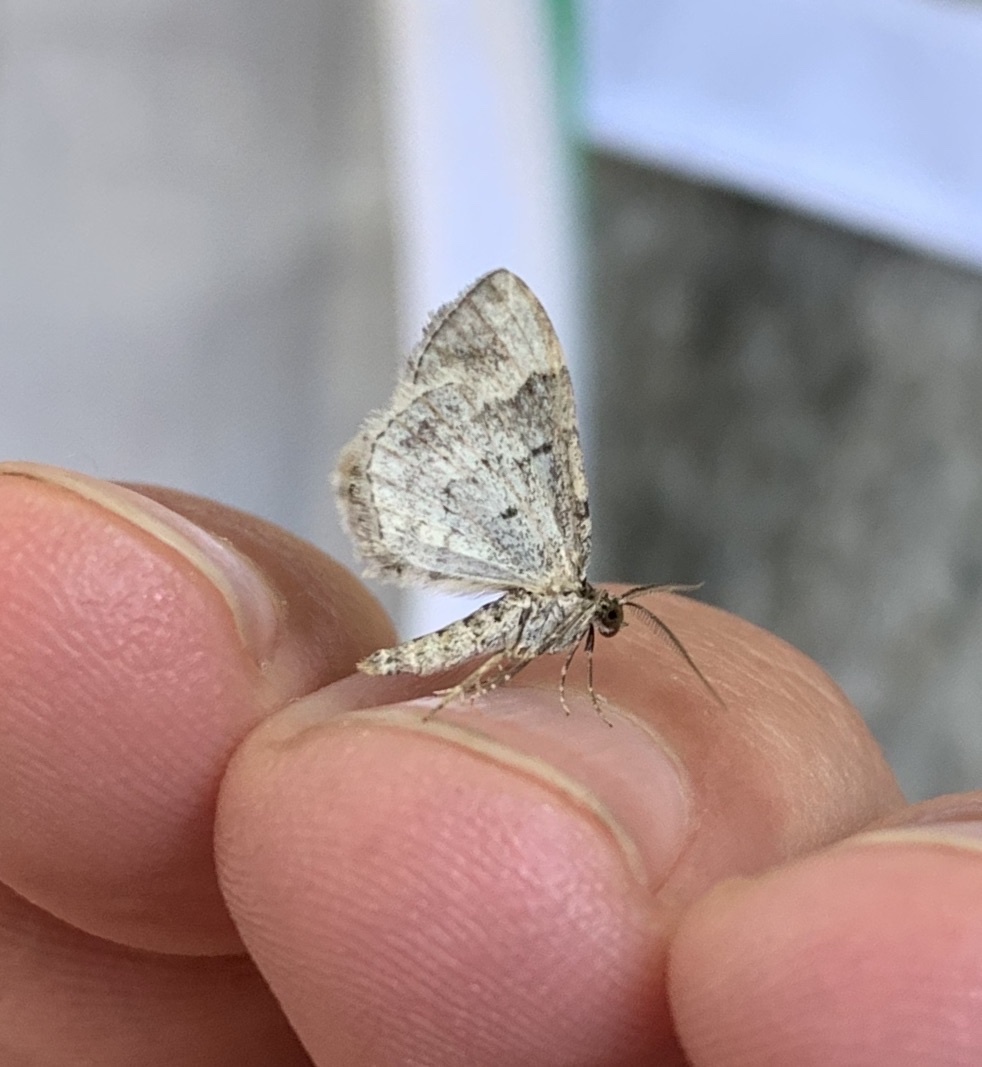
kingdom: Animalia
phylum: Arthropoda
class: Insecta
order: Lepidoptera
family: Geometridae
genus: Xanthorhoe
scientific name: Xanthorhoe ferrugata
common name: Dark-barred twin-spot carpet
